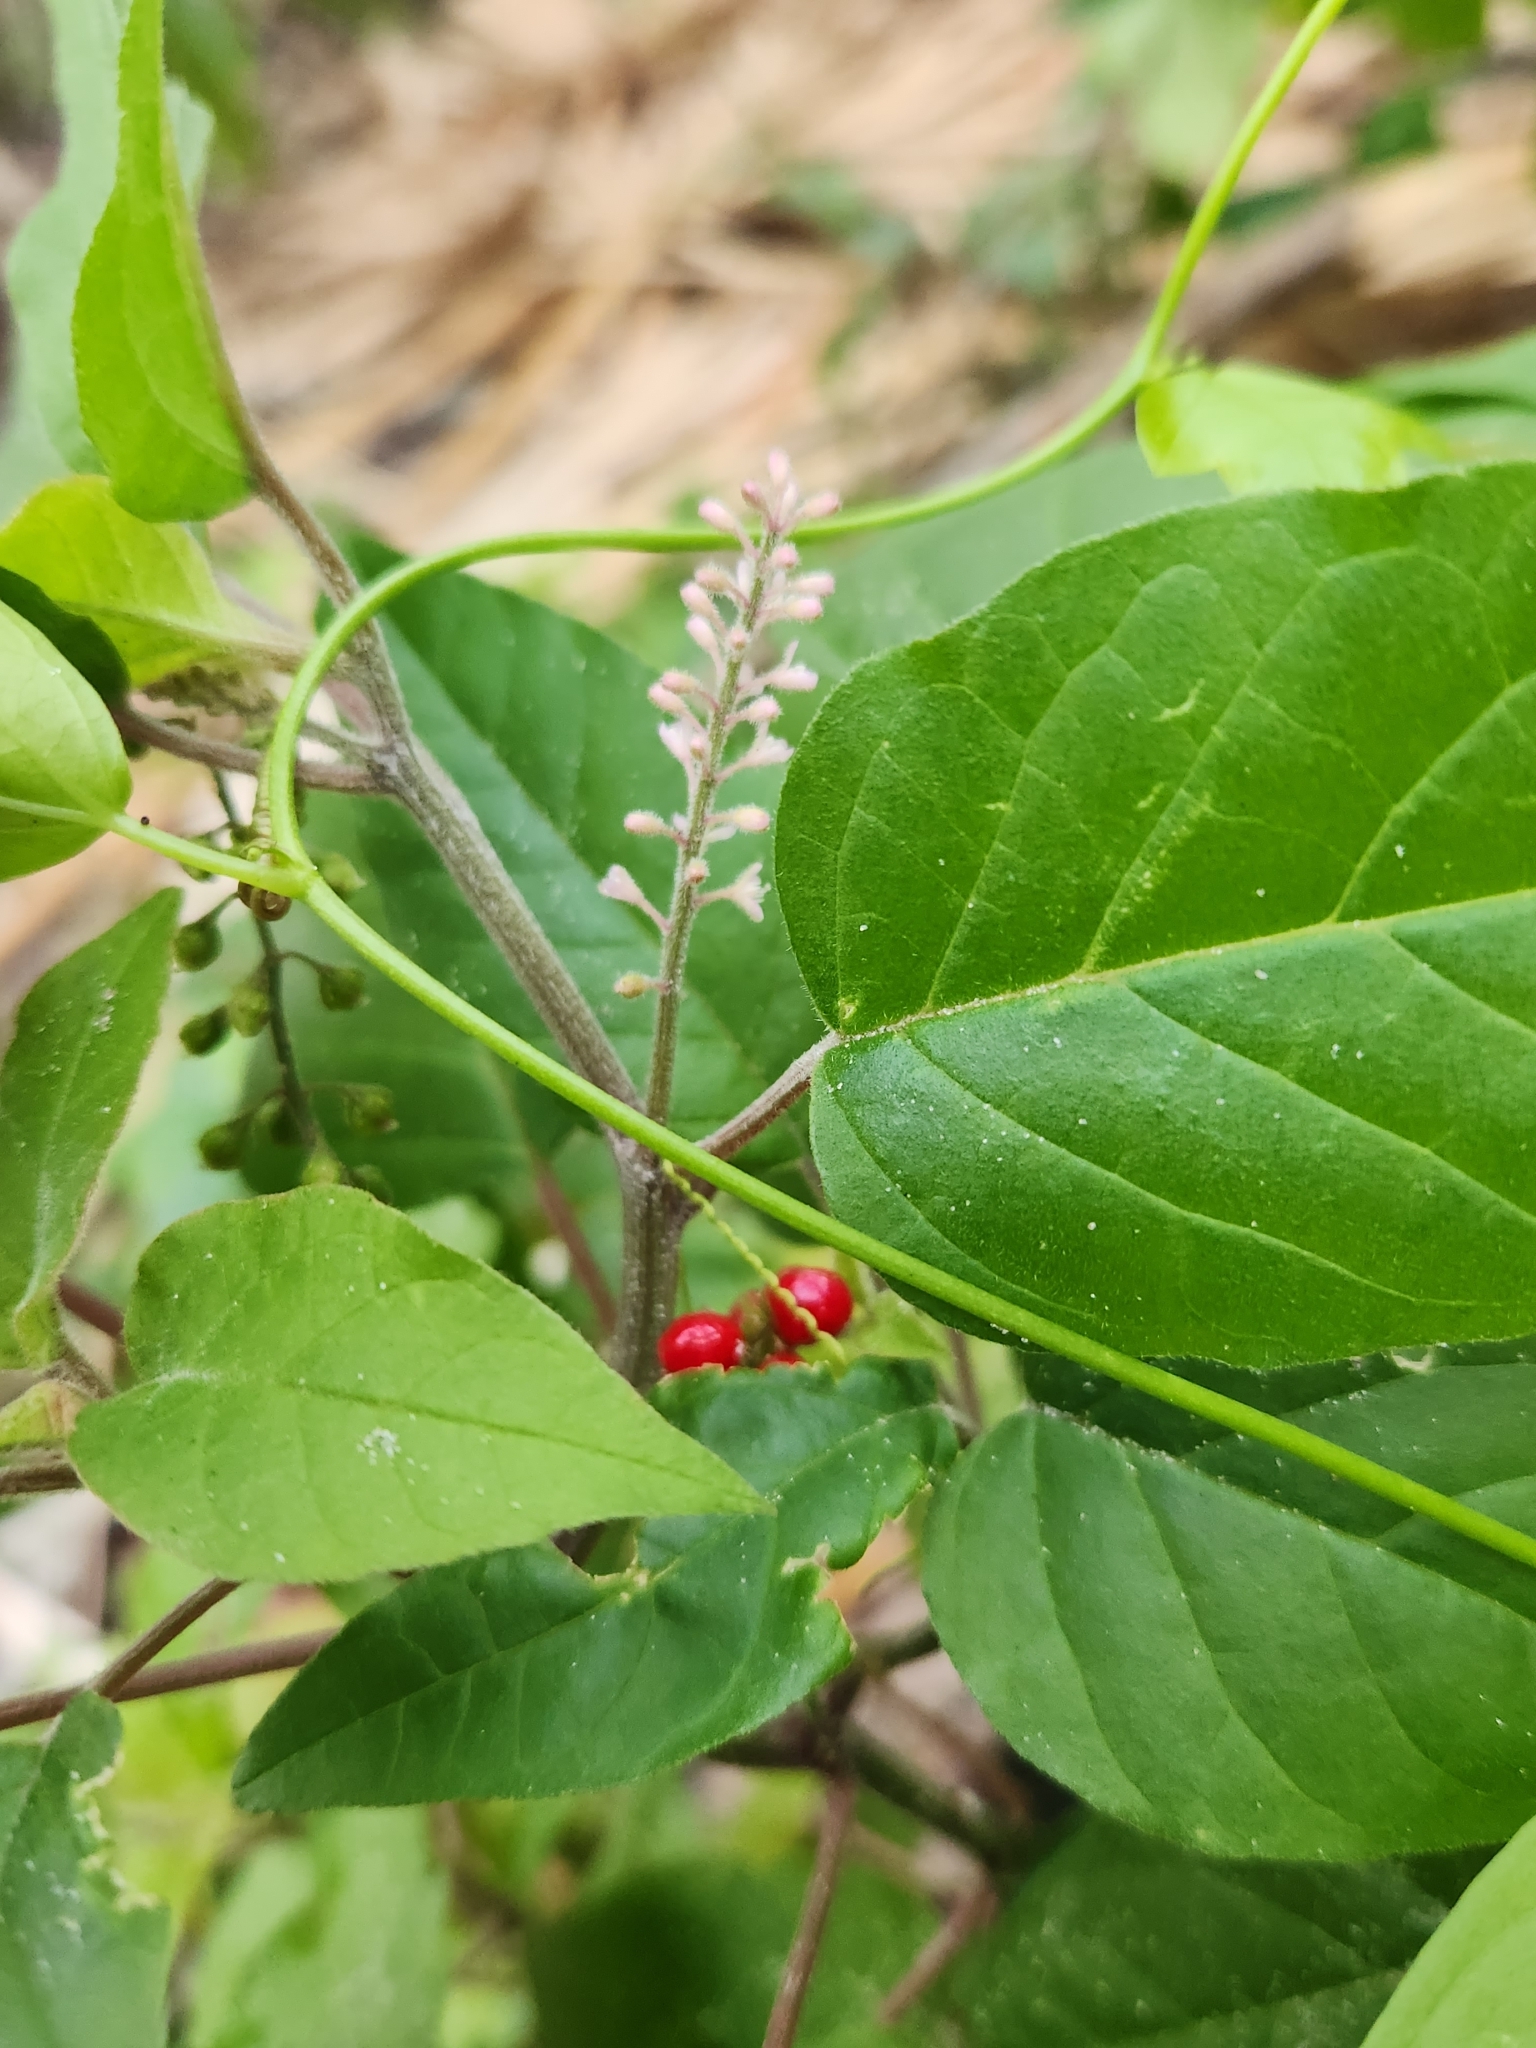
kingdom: Plantae
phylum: Tracheophyta
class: Magnoliopsida
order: Caryophyllales
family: Phytolaccaceae
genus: Rivina
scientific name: Rivina humilis
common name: Rougeplant
